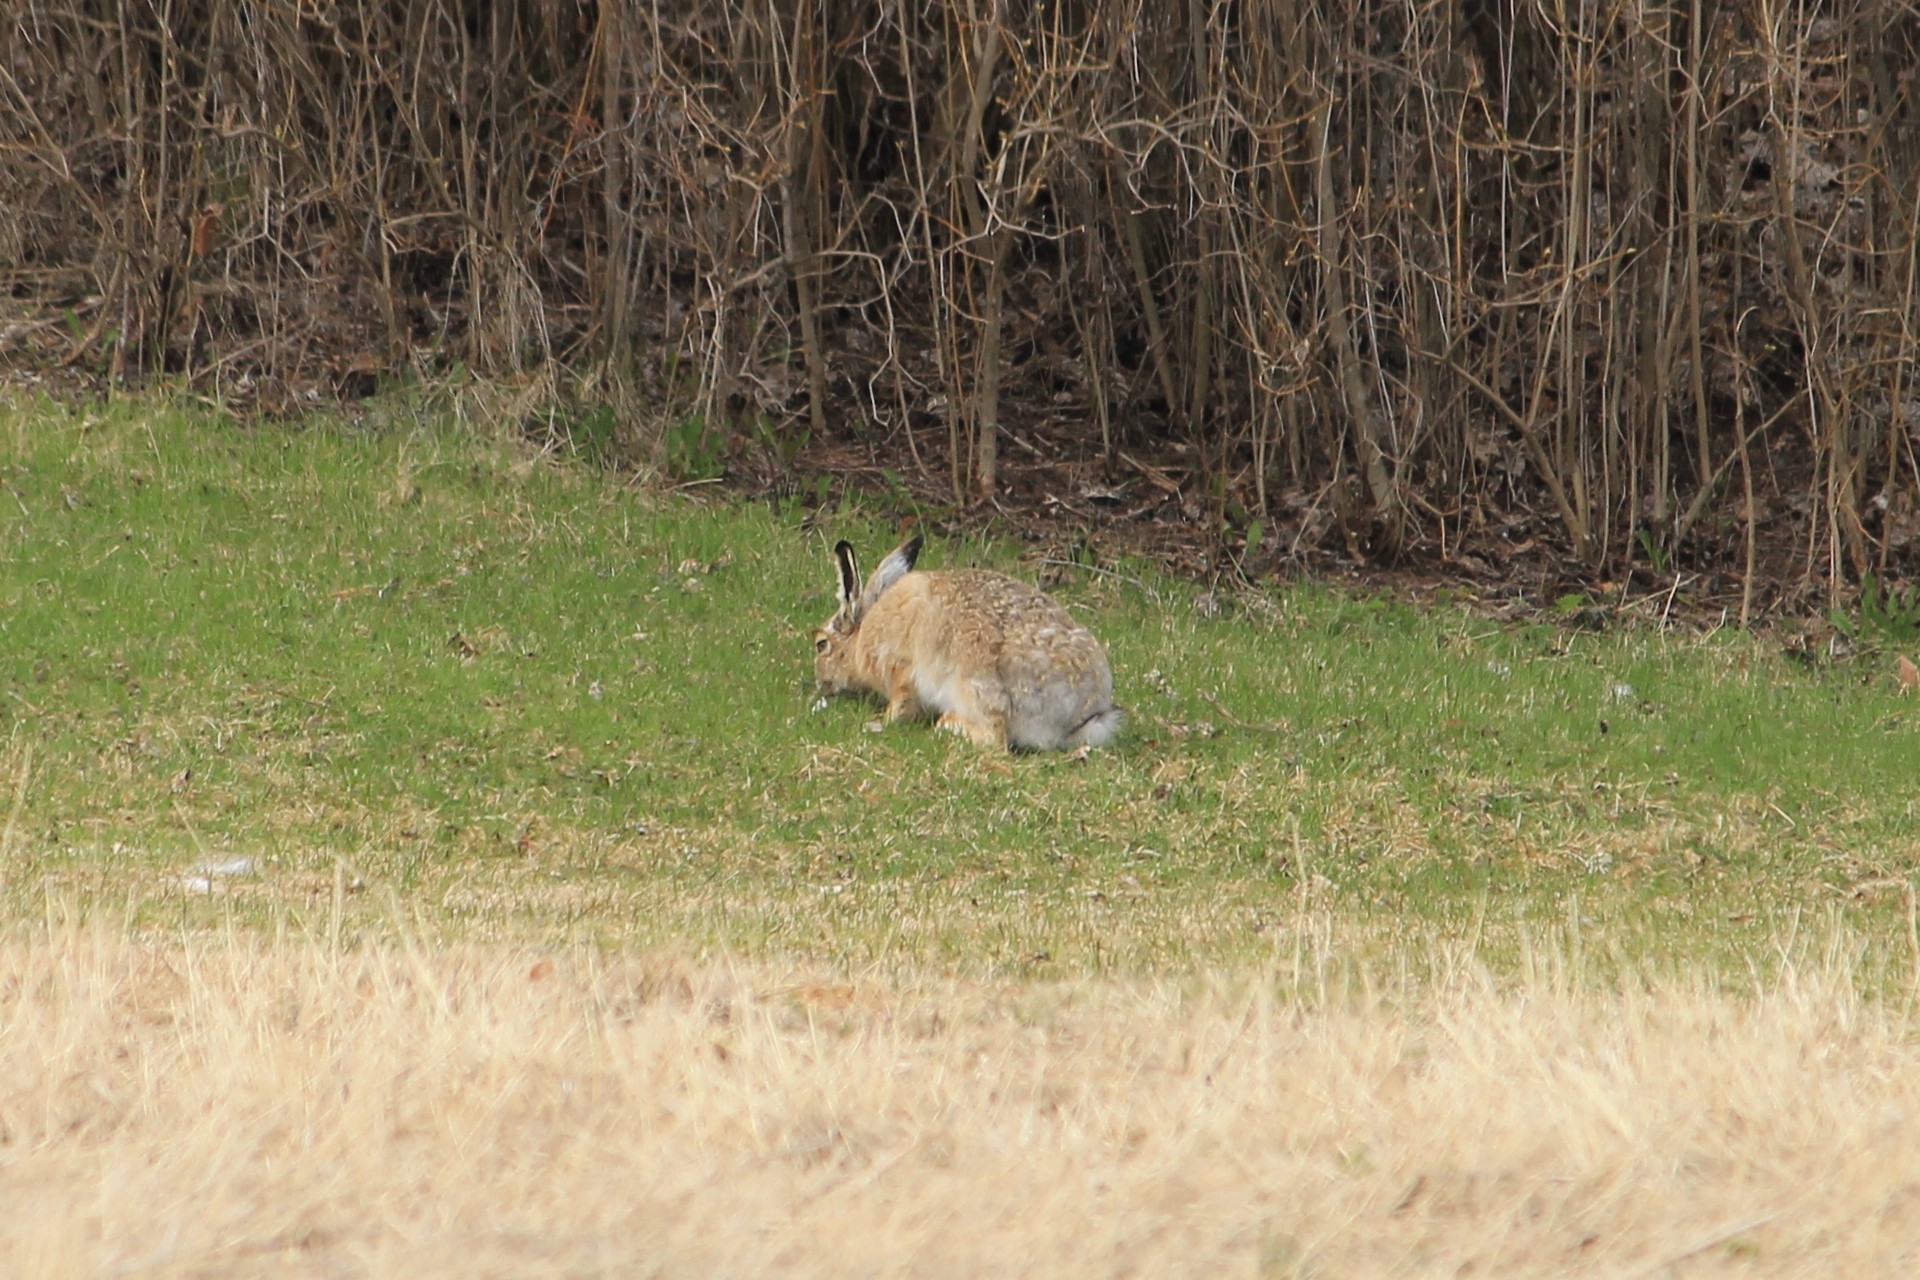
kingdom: Animalia
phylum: Chordata
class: Mammalia
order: Lagomorpha
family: Leporidae
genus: Lepus
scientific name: Lepus europaeus
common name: European hare
